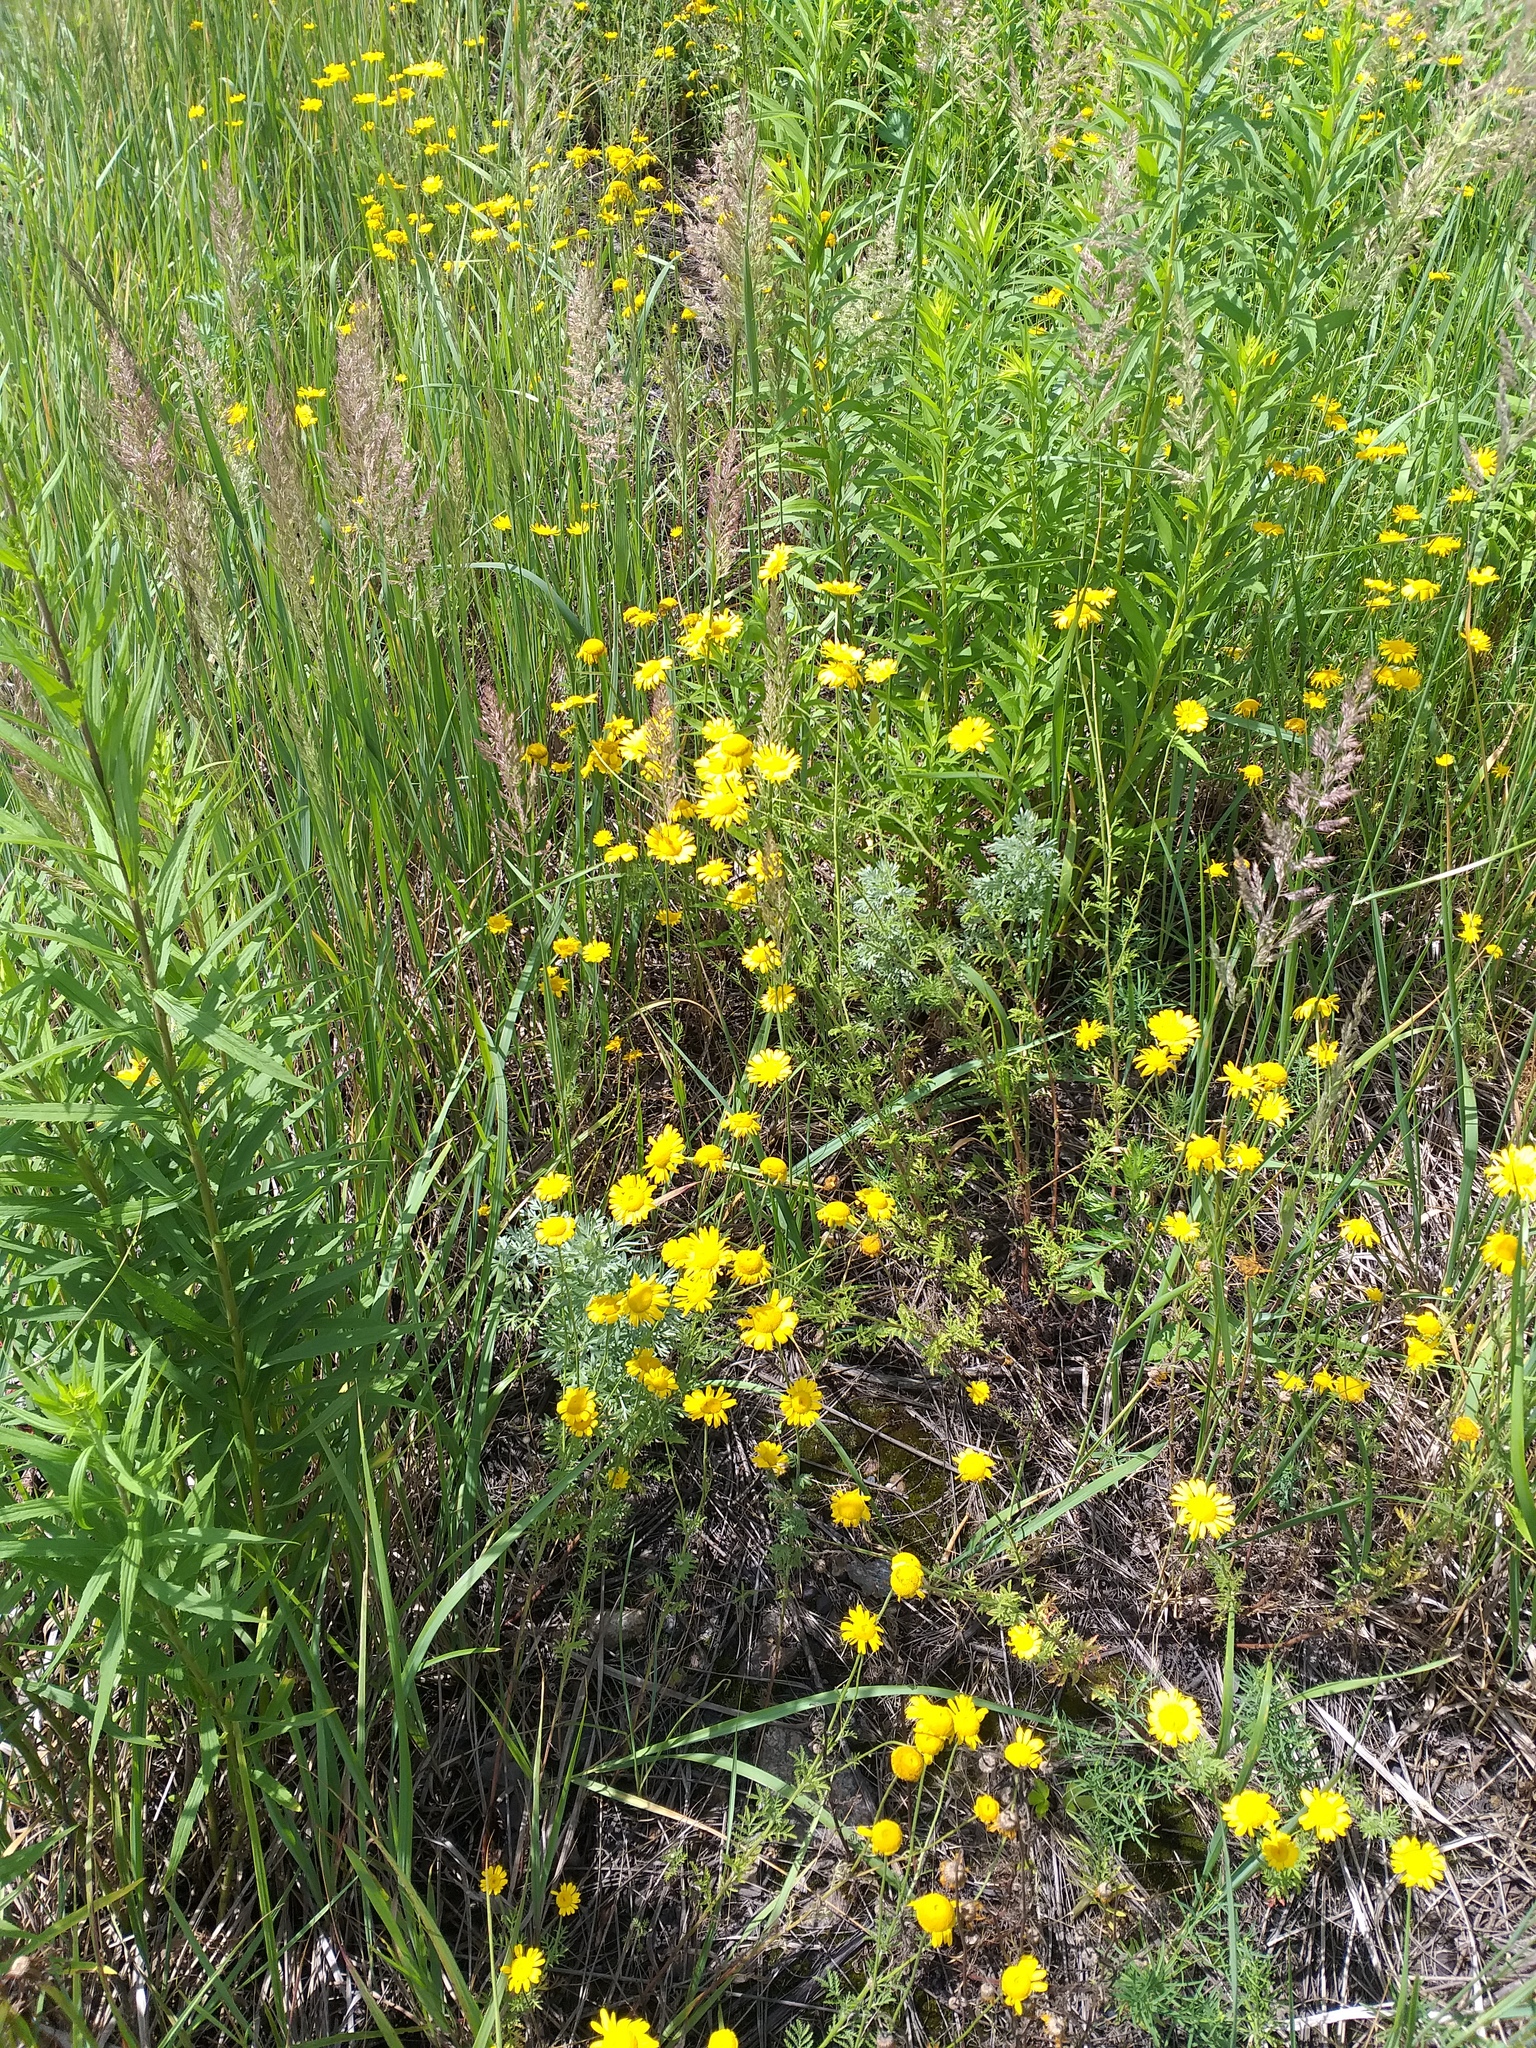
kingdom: Plantae
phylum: Tracheophyta
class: Magnoliopsida
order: Asterales
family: Asteraceae
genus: Cota
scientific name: Cota tinctoria
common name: Golden chamomile
